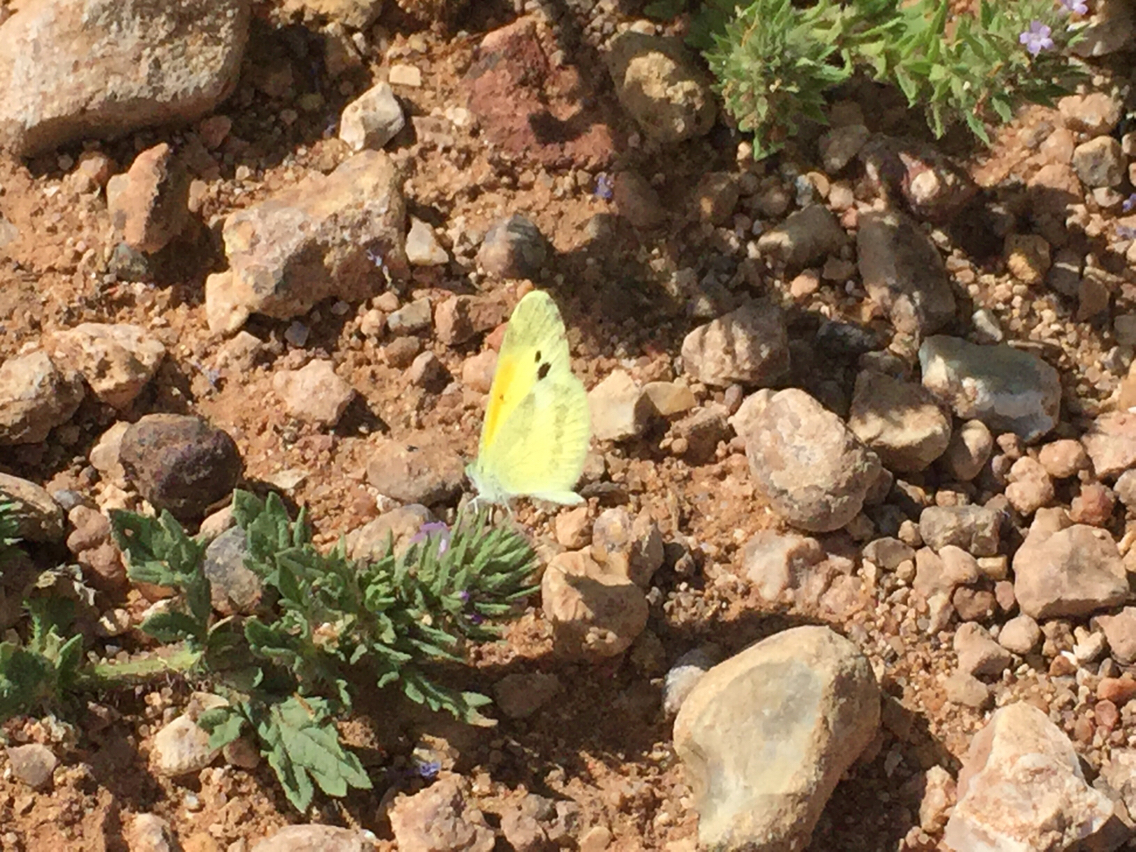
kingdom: Animalia
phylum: Arthropoda
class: Insecta
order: Lepidoptera
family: Pieridae
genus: Nathalis
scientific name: Nathalis iole
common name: Dainty sulphur
